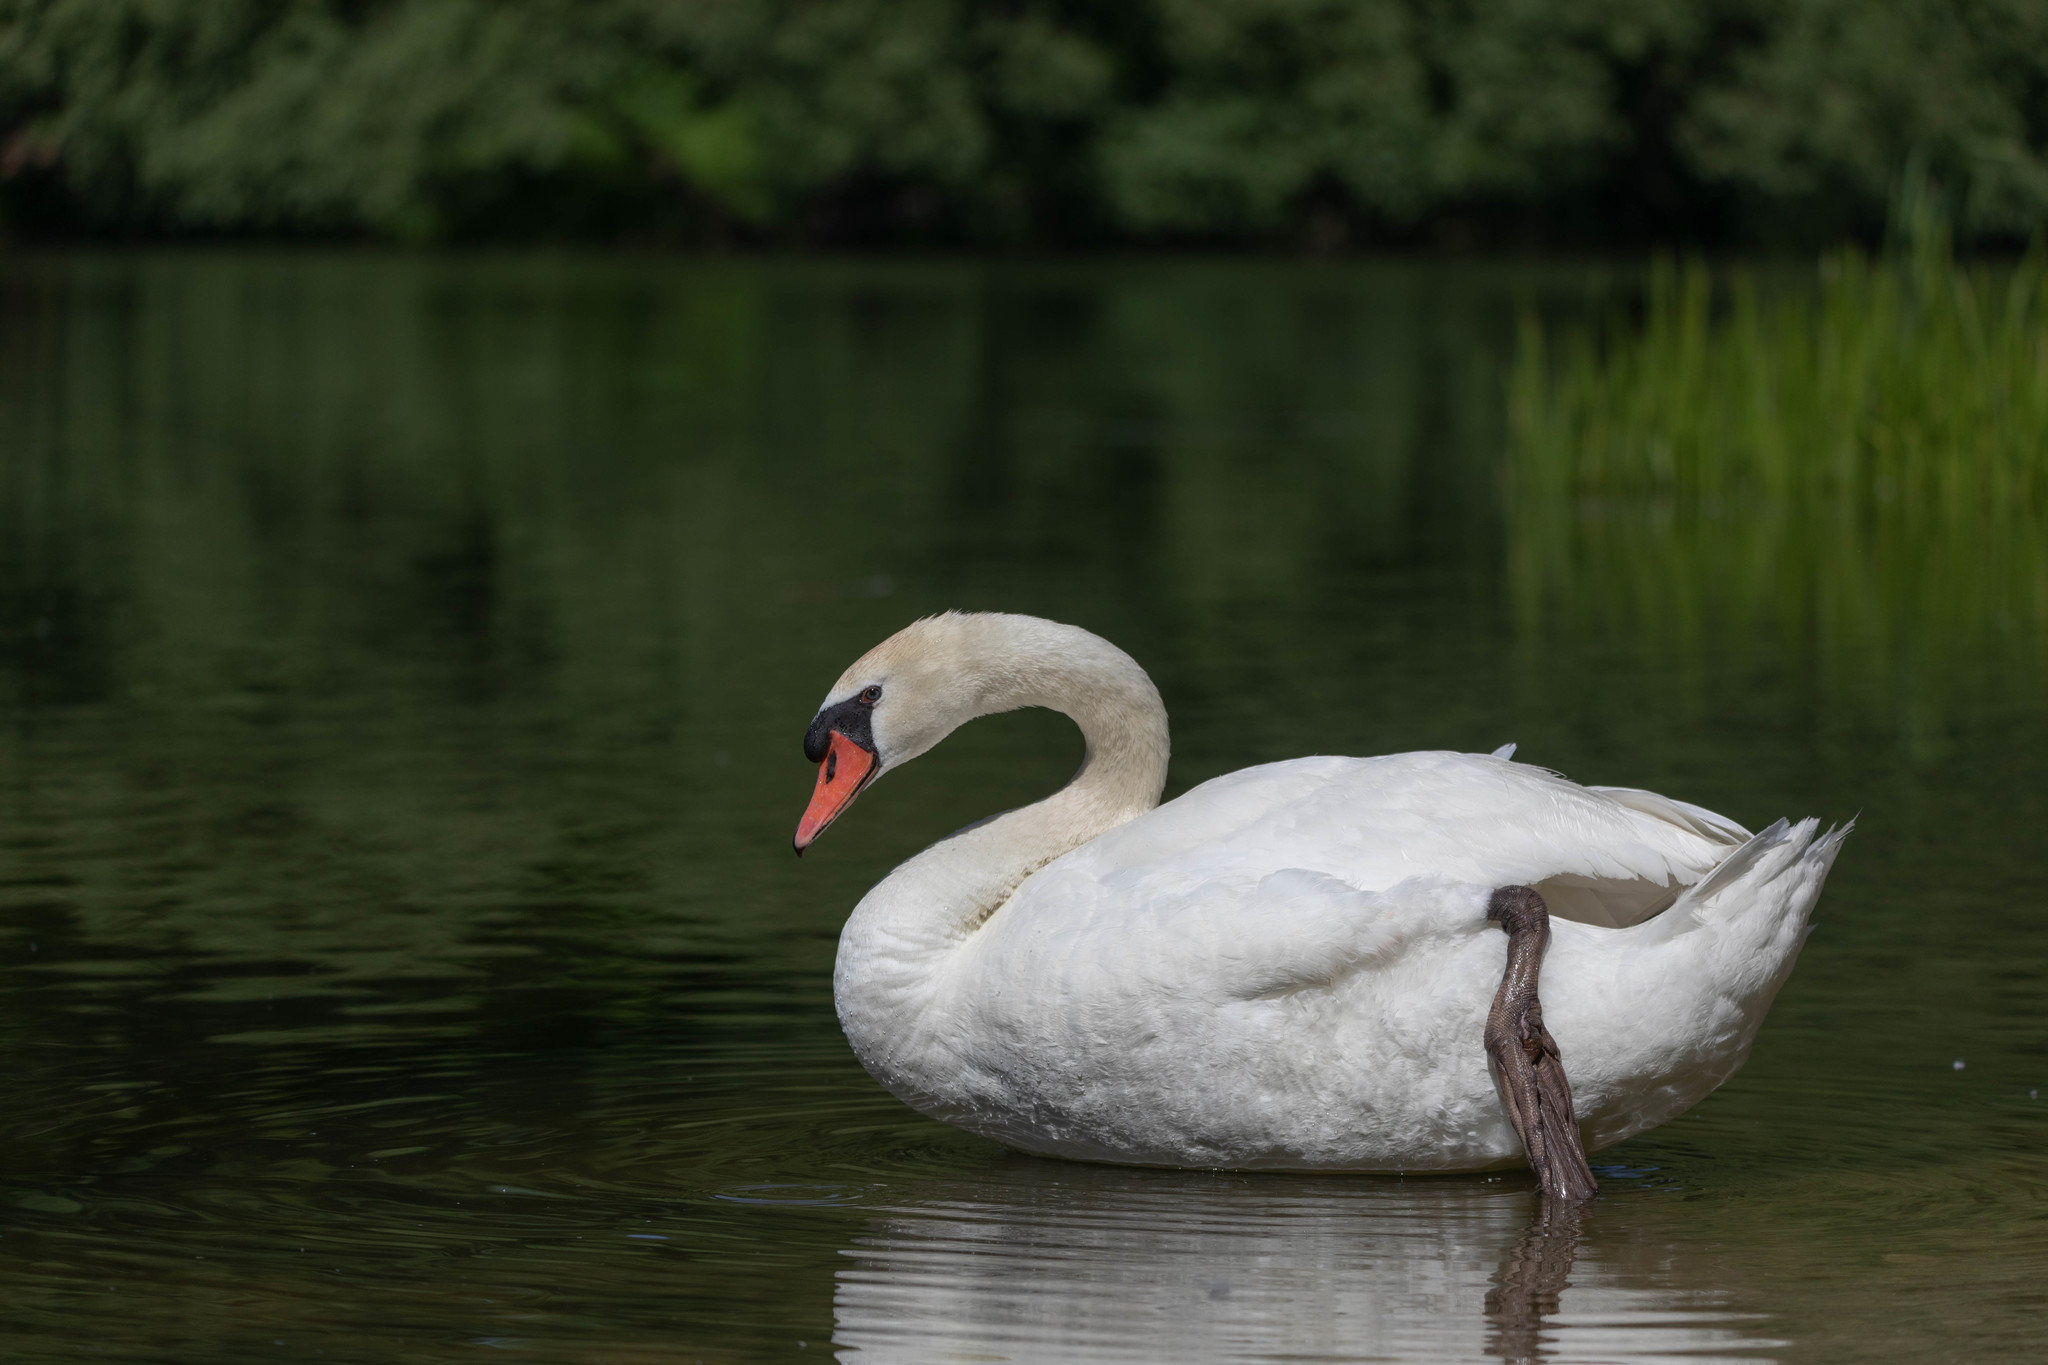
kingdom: Animalia
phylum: Chordata
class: Aves
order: Anseriformes
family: Anatidae
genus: Cygnus
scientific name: Cygnus olor
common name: Mute swan
